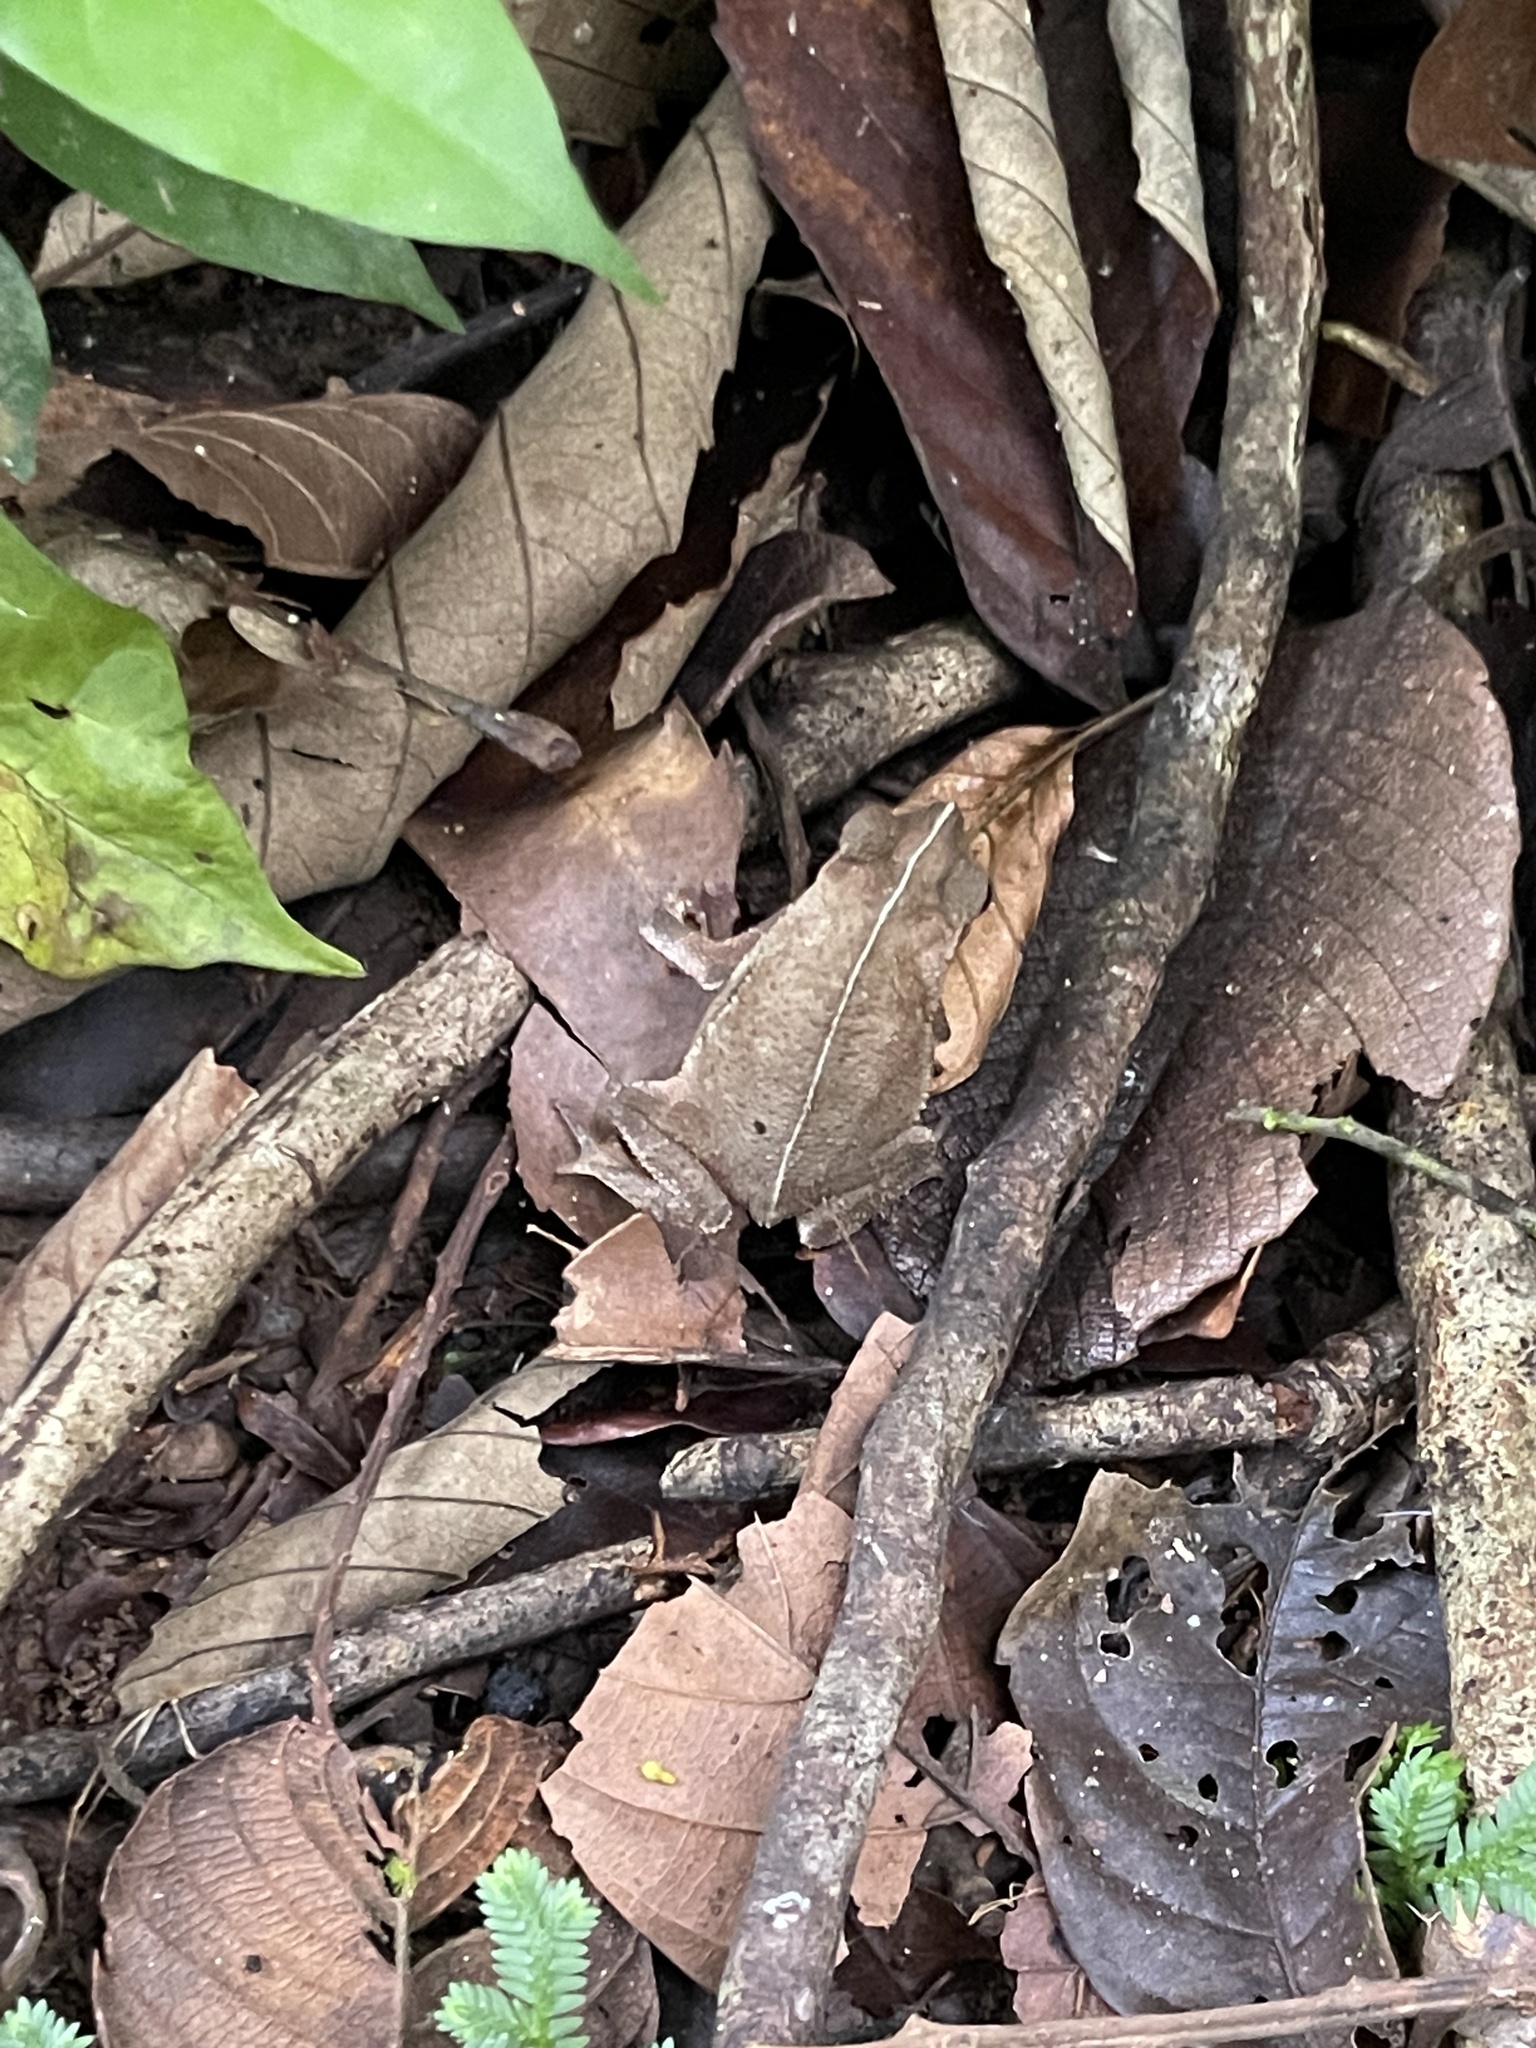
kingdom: Animalia
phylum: Chordata
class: Amphibia
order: Anura
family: Bufonidae
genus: Rhinella
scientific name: Rhinella alata
